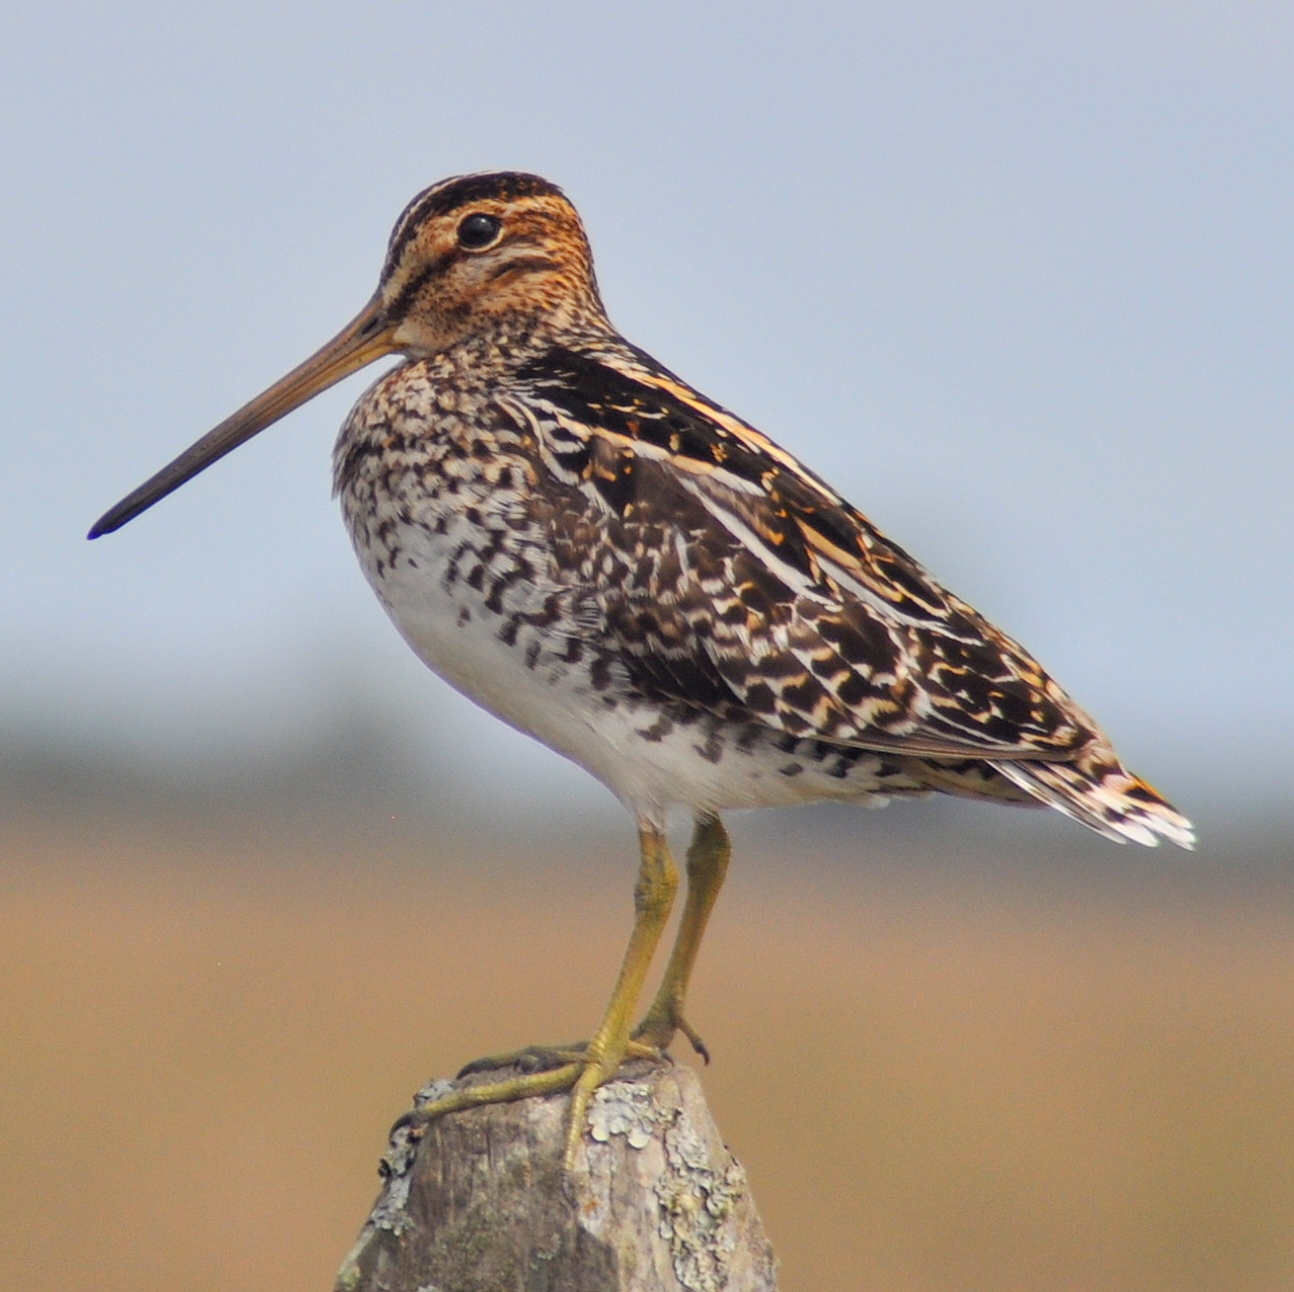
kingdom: Animalia
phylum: Chordata
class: Aves
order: Charadriiformes
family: Scolopacidae
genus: Gallinago
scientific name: Gallinago paraguaiae
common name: South american snipe
